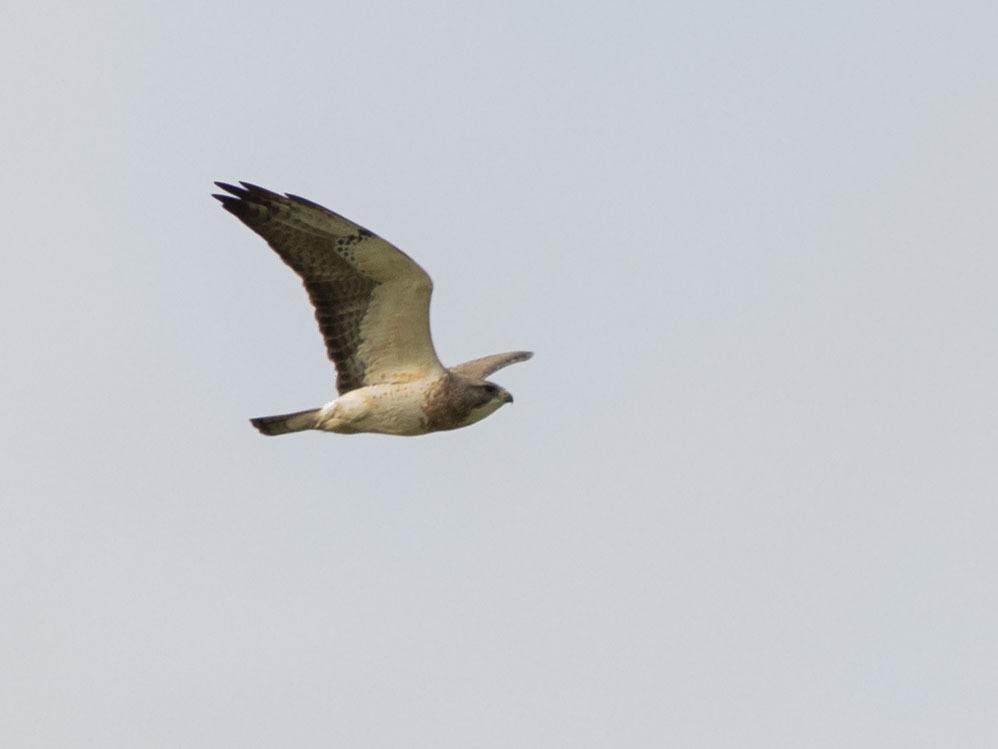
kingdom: Animalia
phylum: Chordata
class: Aves
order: Accipitriformes
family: Accipitridae
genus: Buteo
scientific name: Buteo swainsoni
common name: Swainson's hawk
